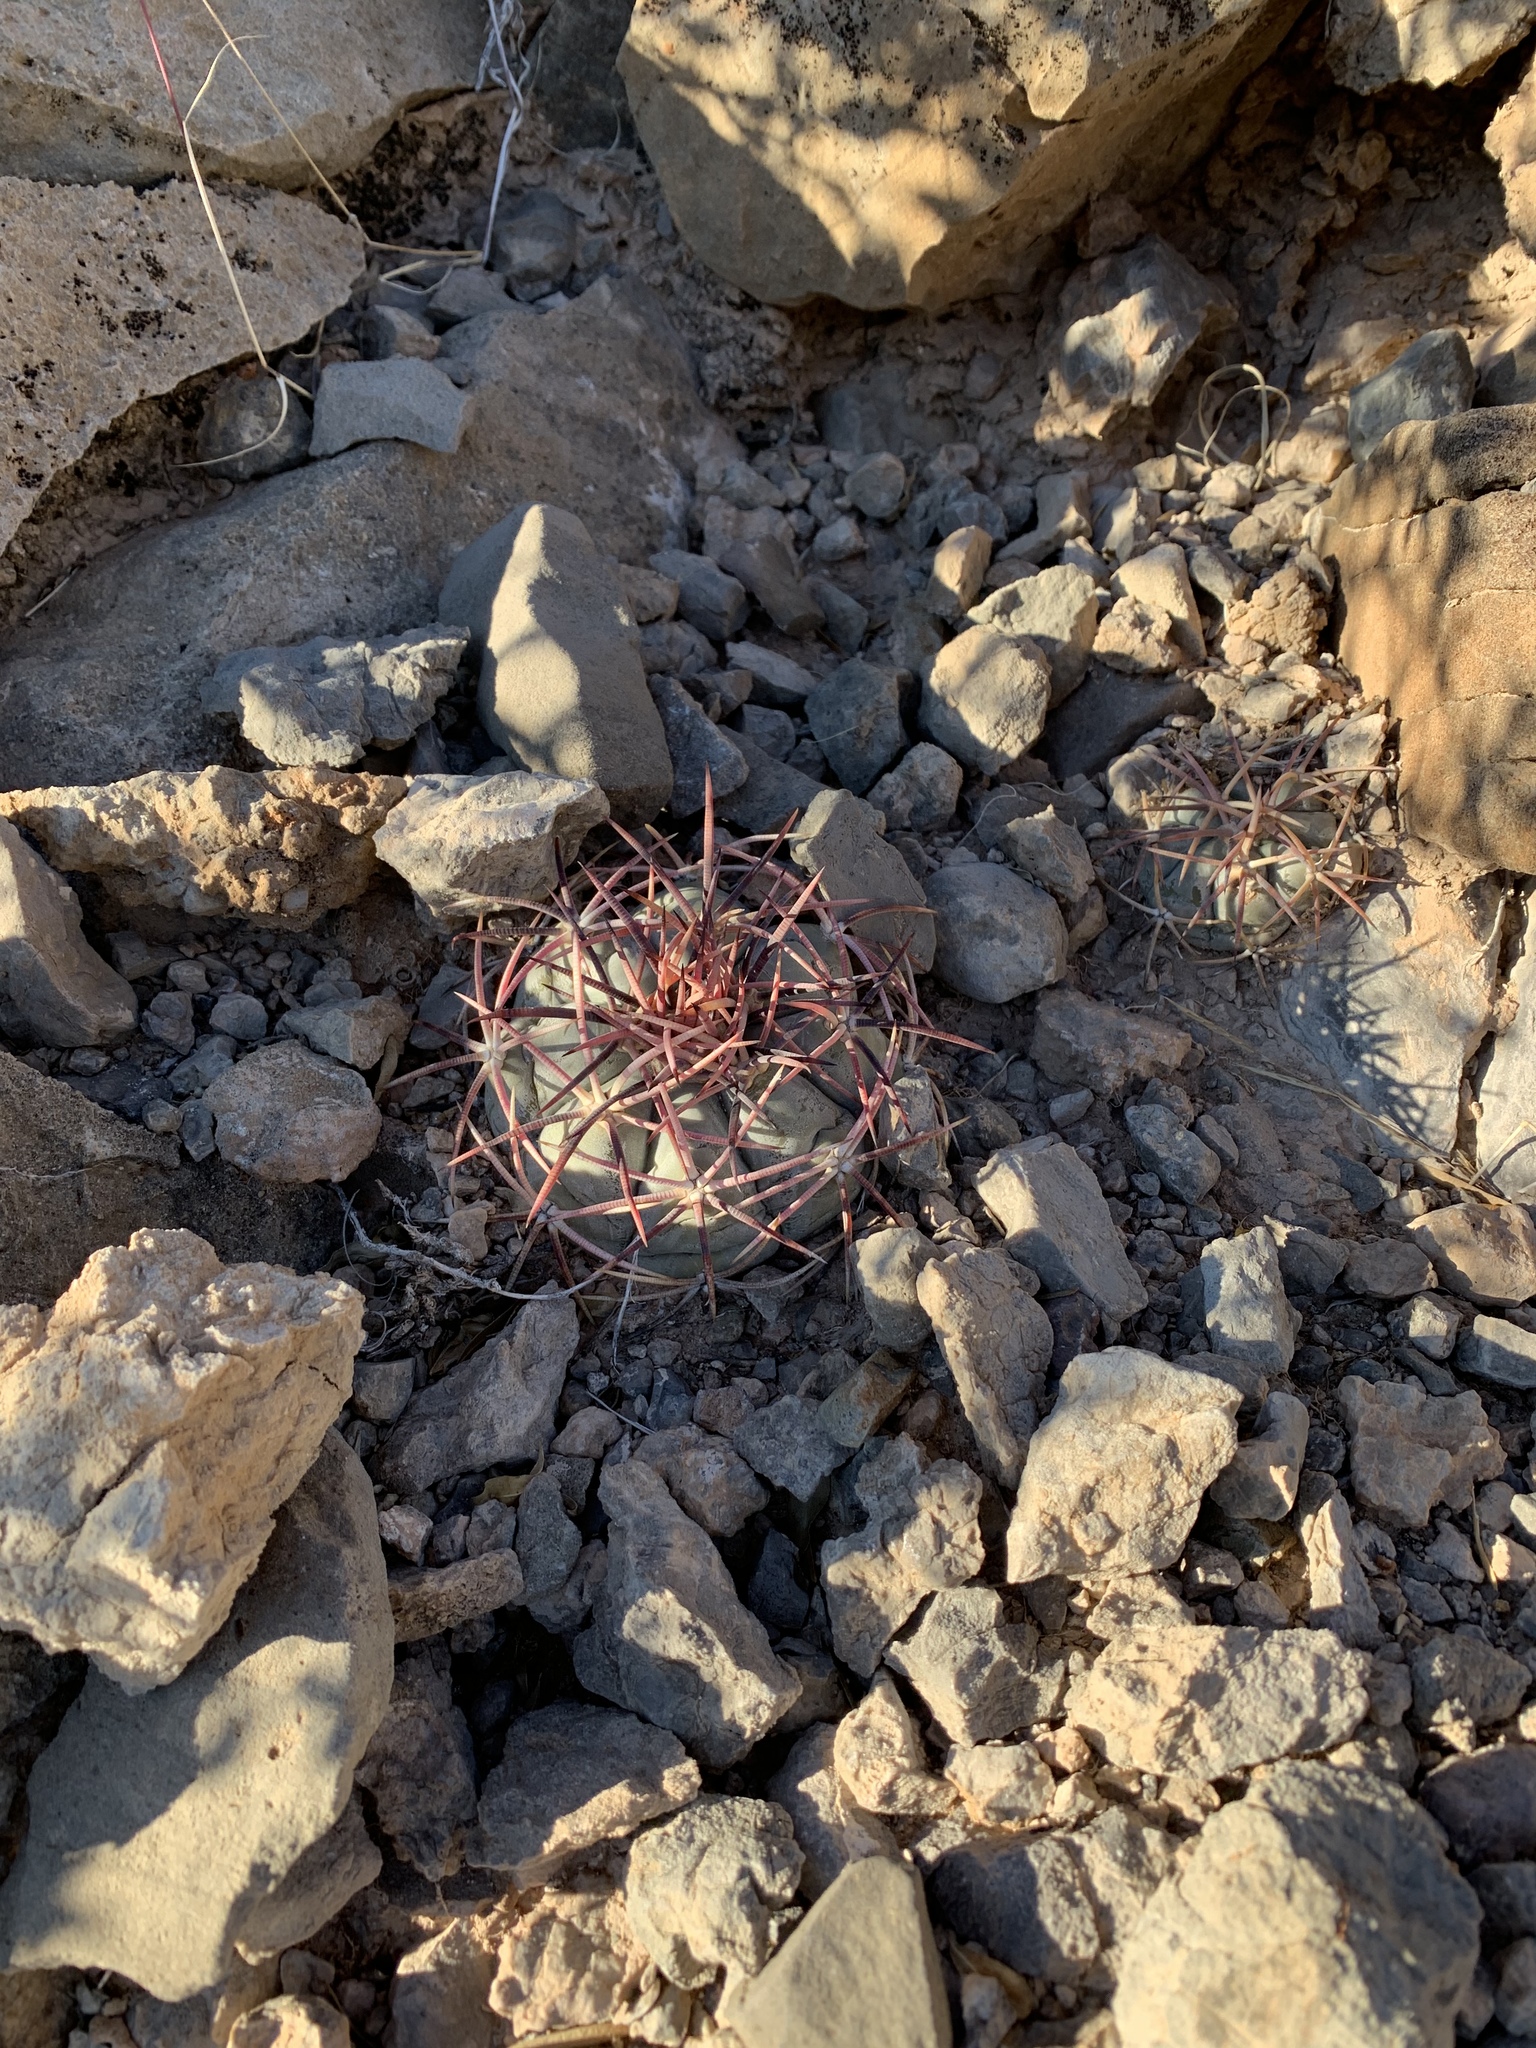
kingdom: Plantae
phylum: Tracheophyta
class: Magnoliopsida
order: Caryophyllales
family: Cactaceae
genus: Echinocactus
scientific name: Echinocactus horizonthalonius
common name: Devilshead
